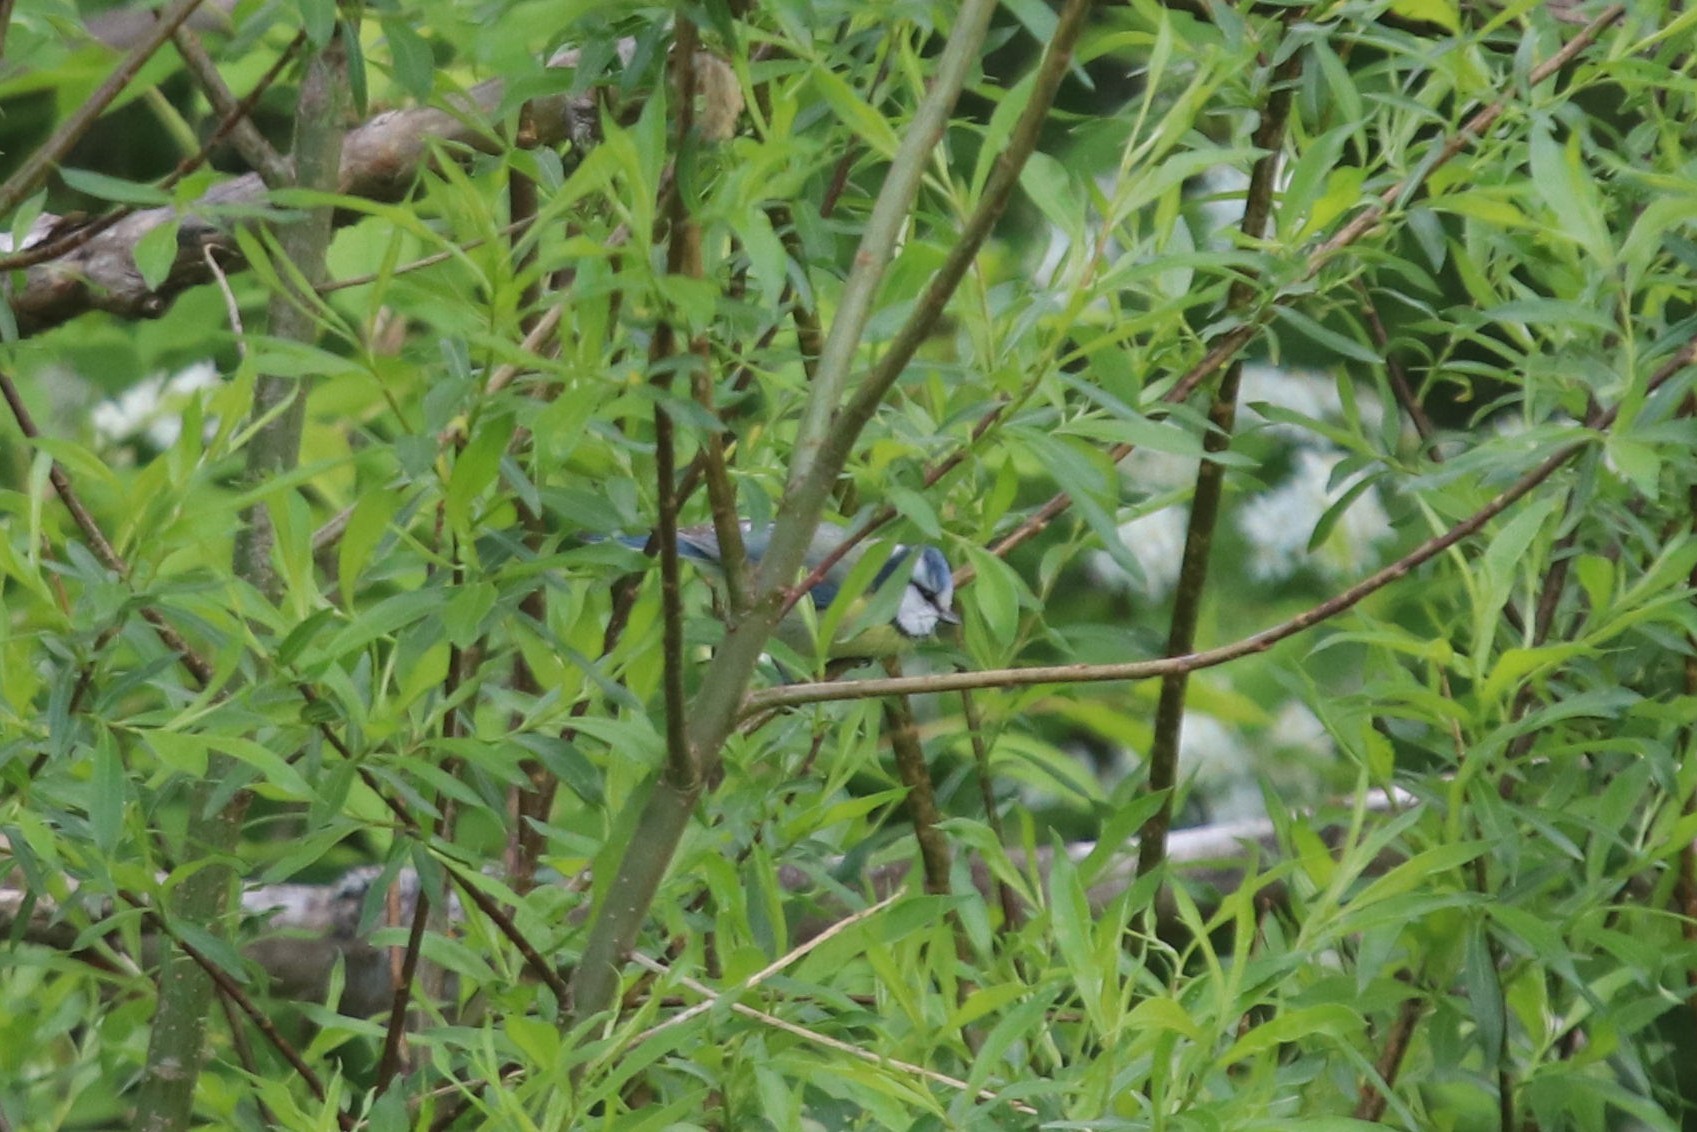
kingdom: Animalia
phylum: Chordata
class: Aves
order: Passeriformes
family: Paridae
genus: Cyanistes
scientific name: Cyanistes caeruleus
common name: Eurasian blue tit
